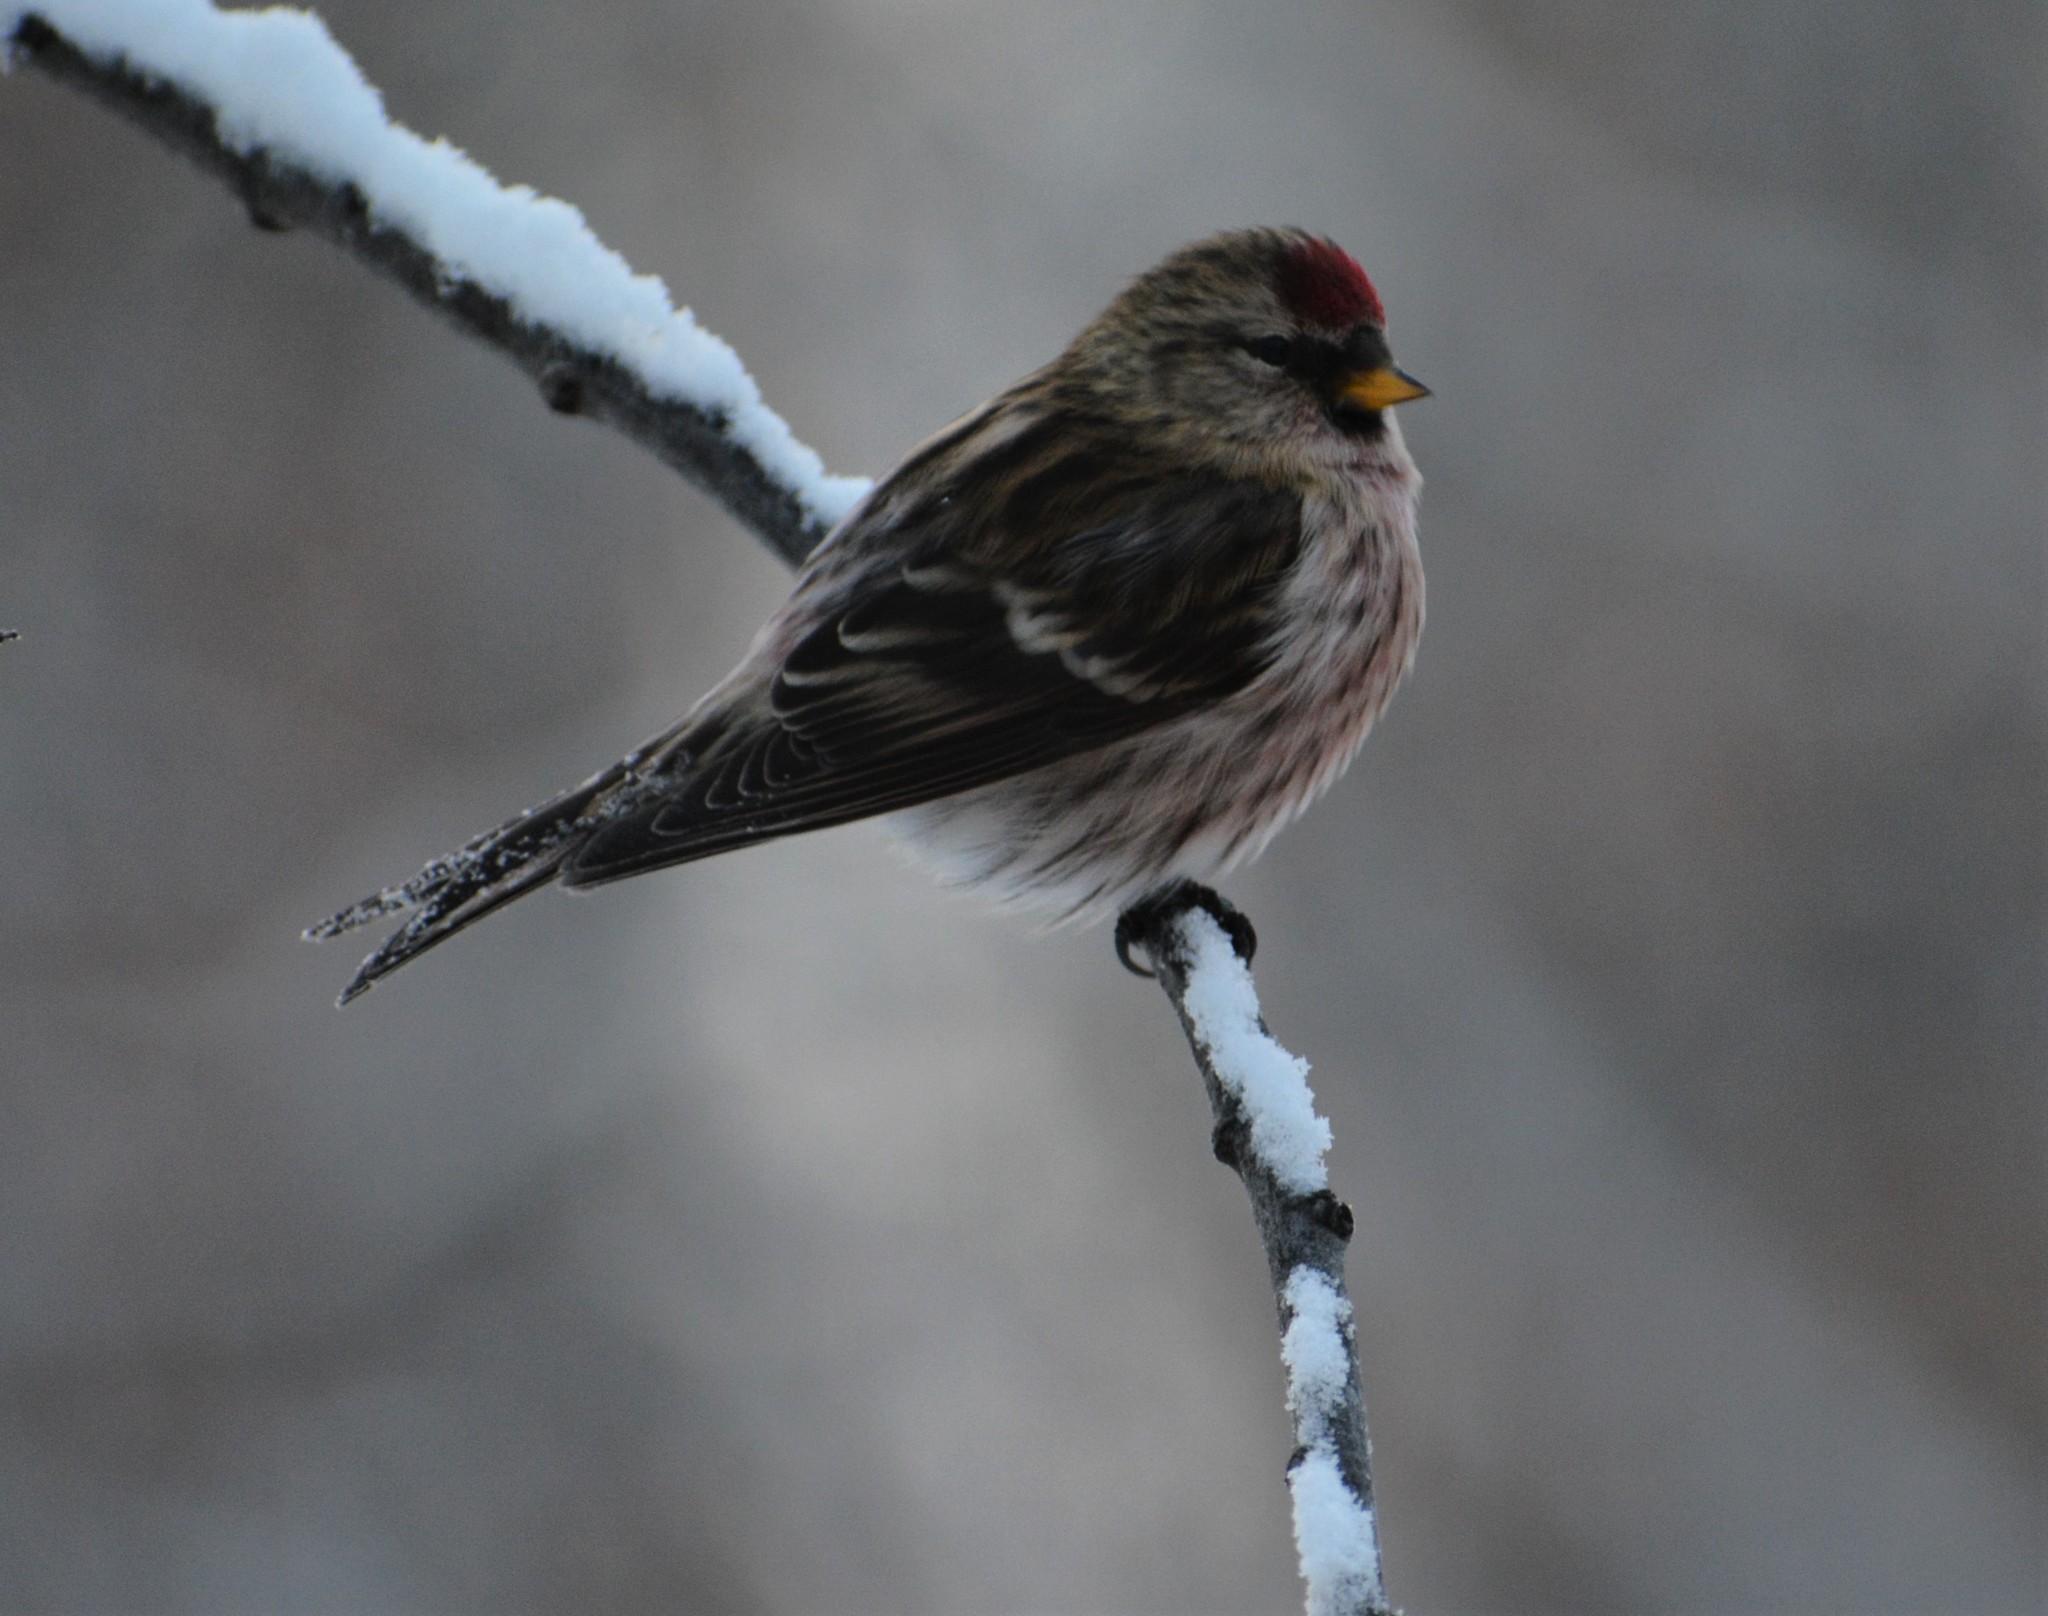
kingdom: Animalia
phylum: Chordata
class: Aves
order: Passeriformes
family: Fringillidae
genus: Acanthis
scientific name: Acanthis flammea
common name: Common redpoll
